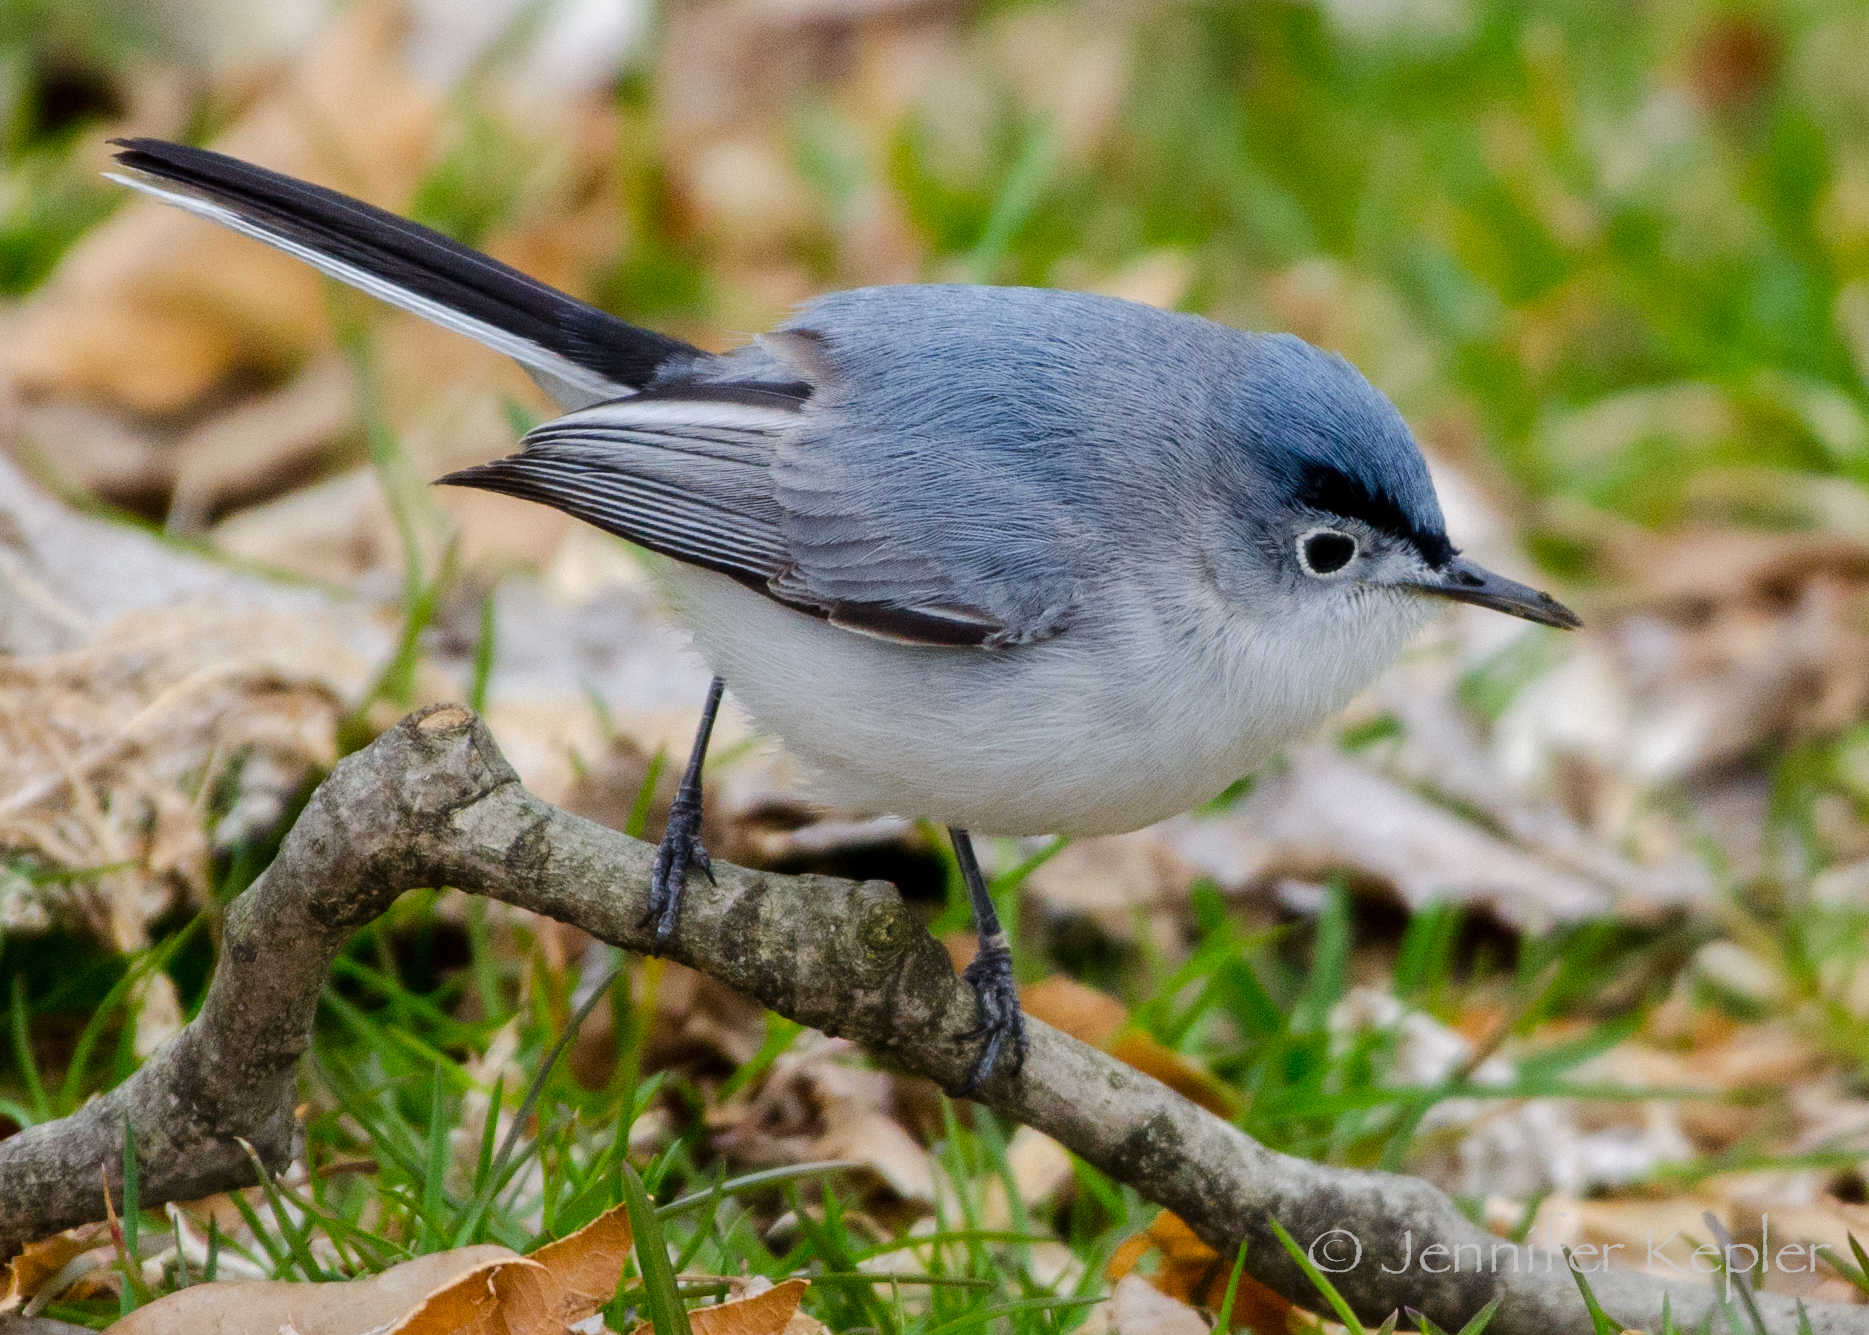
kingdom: Animalia
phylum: Chordata
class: Aves
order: Passeriformes
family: Polioptilidae
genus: Polioptila
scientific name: Polioptila caerulea
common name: Blue-gray gnatcatcher
